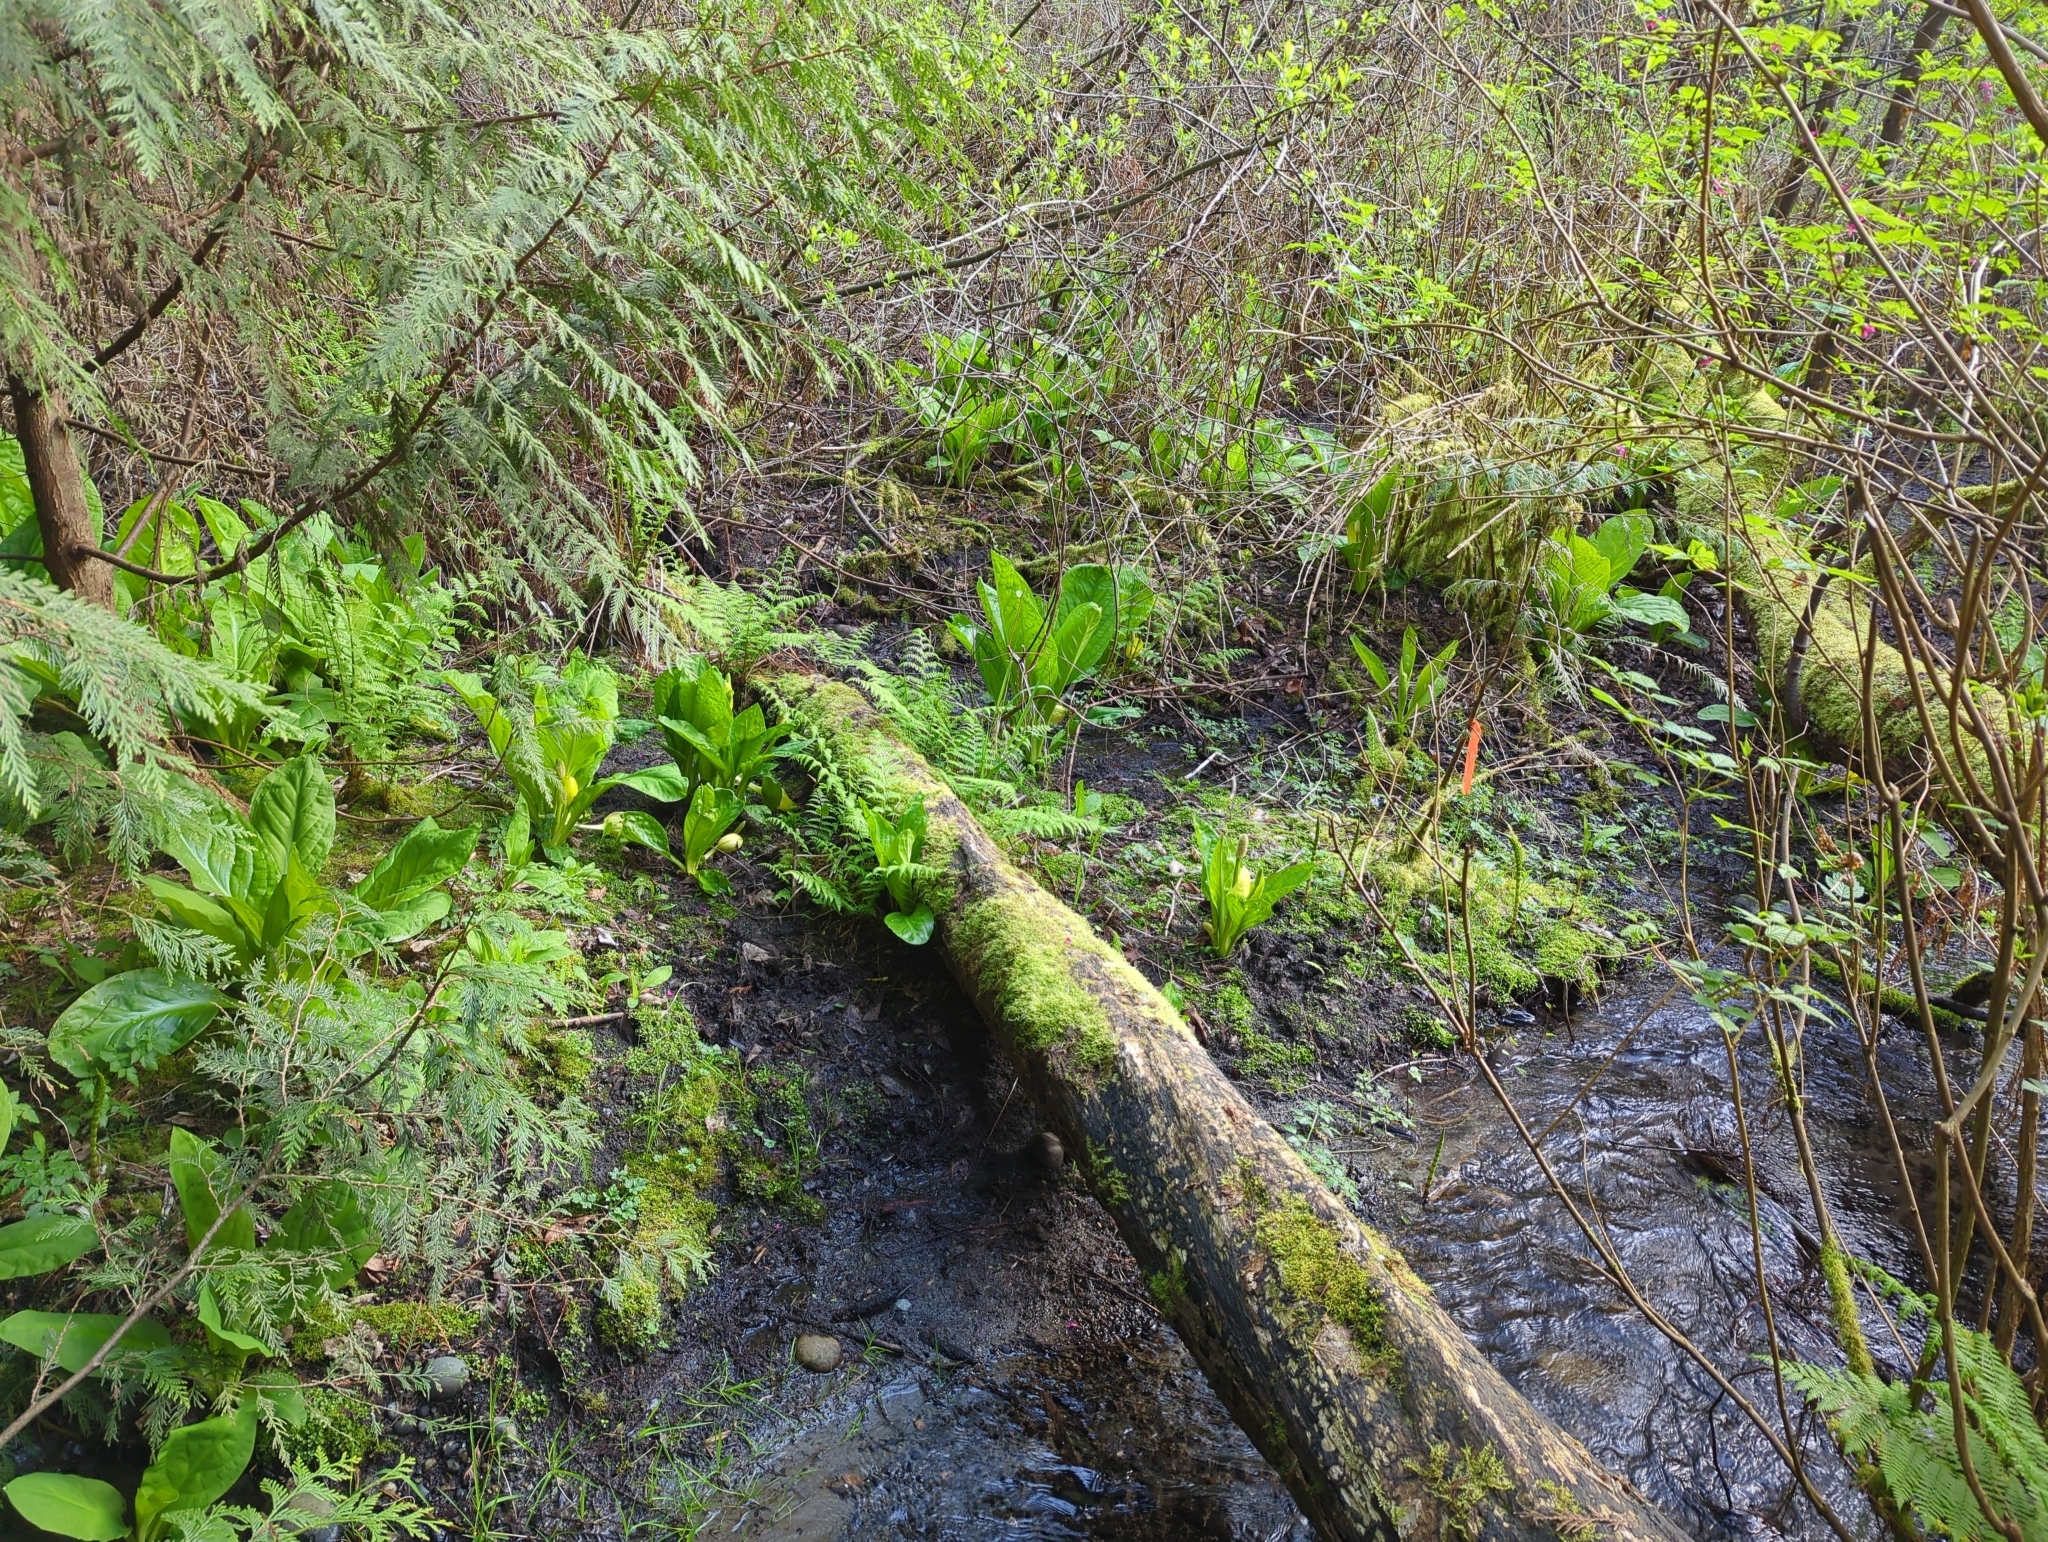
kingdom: Plantae
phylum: Tracheophyta
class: Liliopsida
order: Alismatales
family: Araceae
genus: Lysichiton
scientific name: Lysichiton americanus
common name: American skunk cabbage
